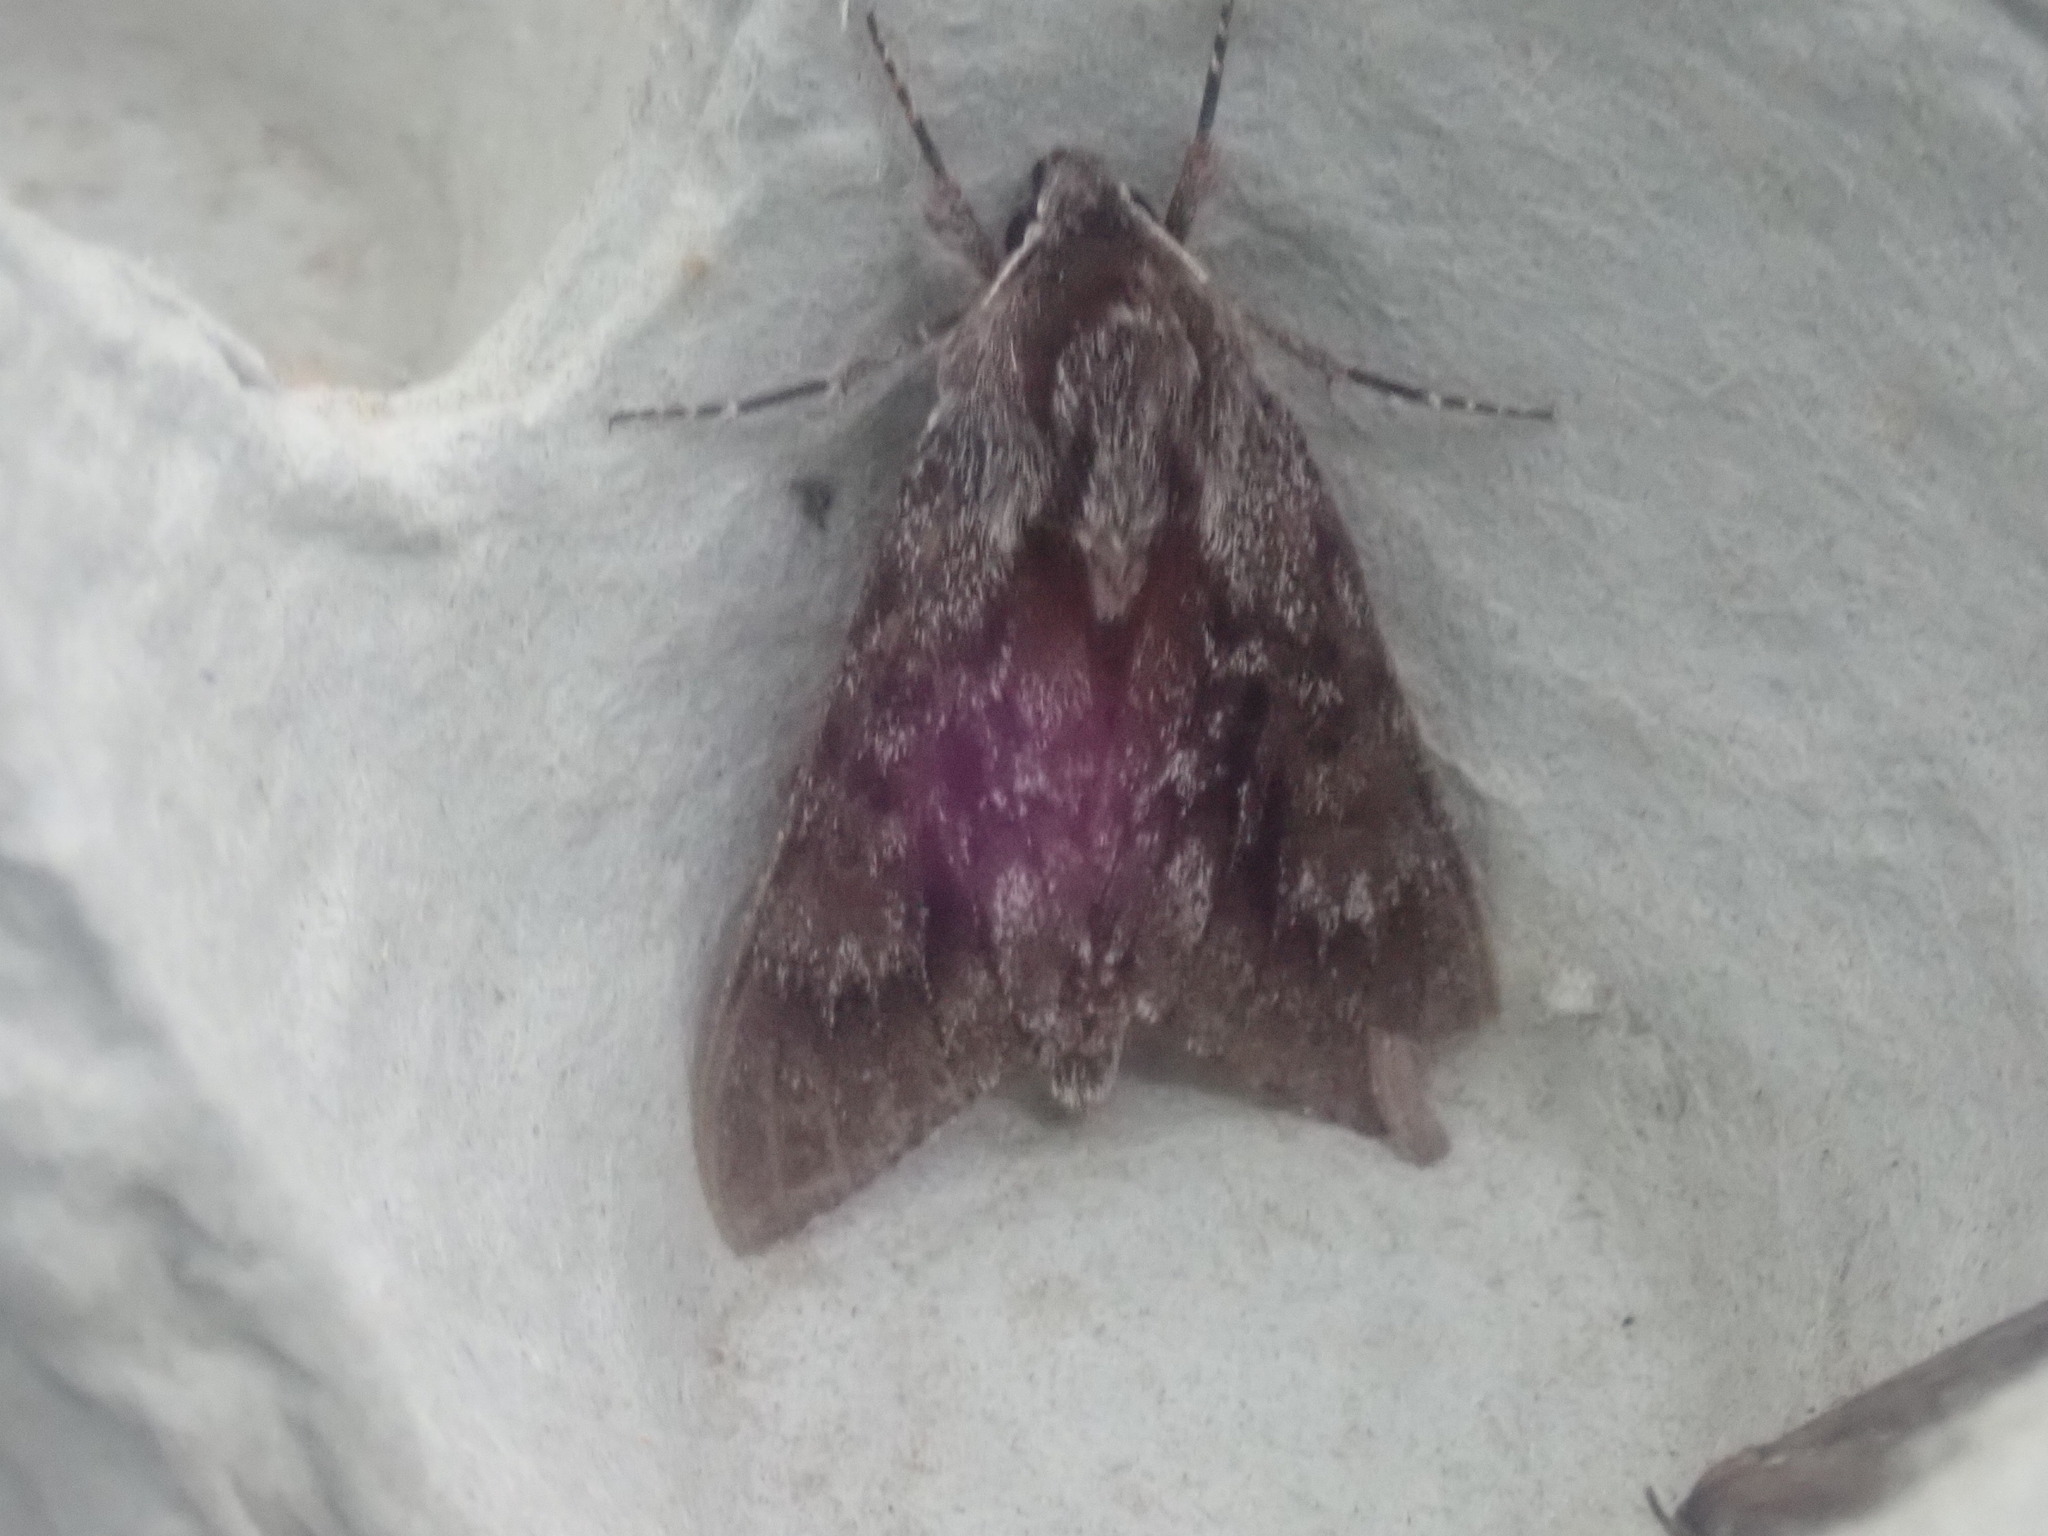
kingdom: Animalia
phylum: Arthropoda
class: Insecta
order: Lepidoptera
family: Sphingidae
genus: Lapara
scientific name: Lapara bombycoides
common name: Northern pine sphinx
